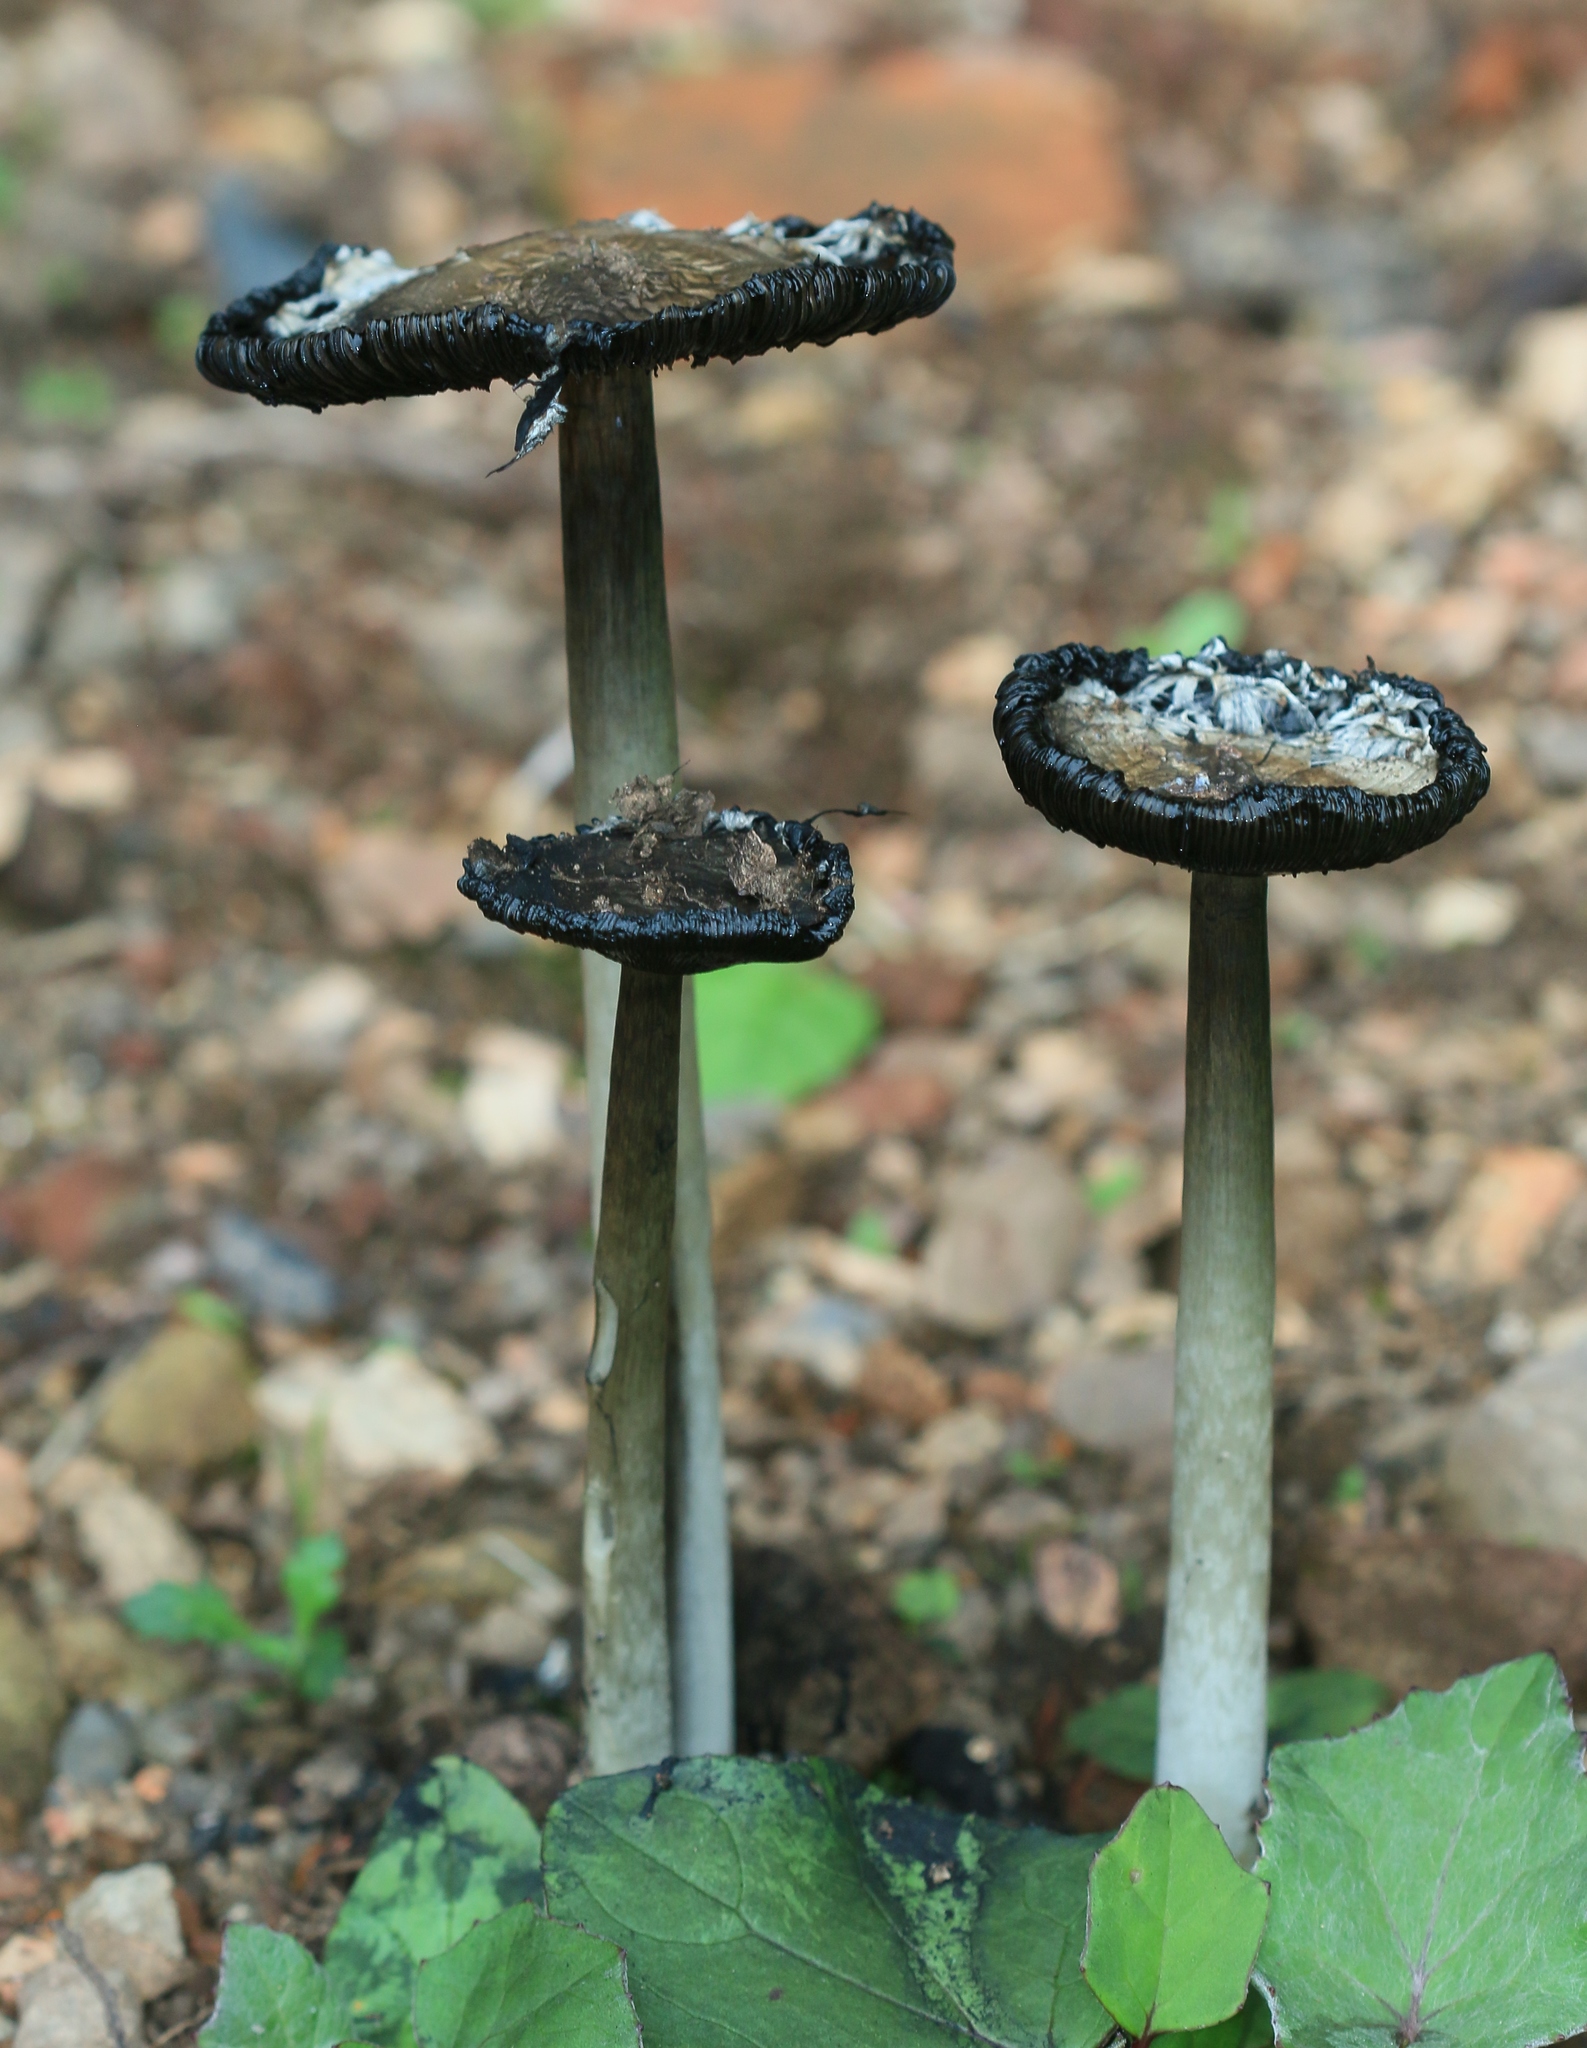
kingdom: Fungi
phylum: Basidiomycota
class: Agaricomycetes
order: Agaricales
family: Agaricaceae
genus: Coprinus
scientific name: Coprinus comatus
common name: Lawyer's wig
